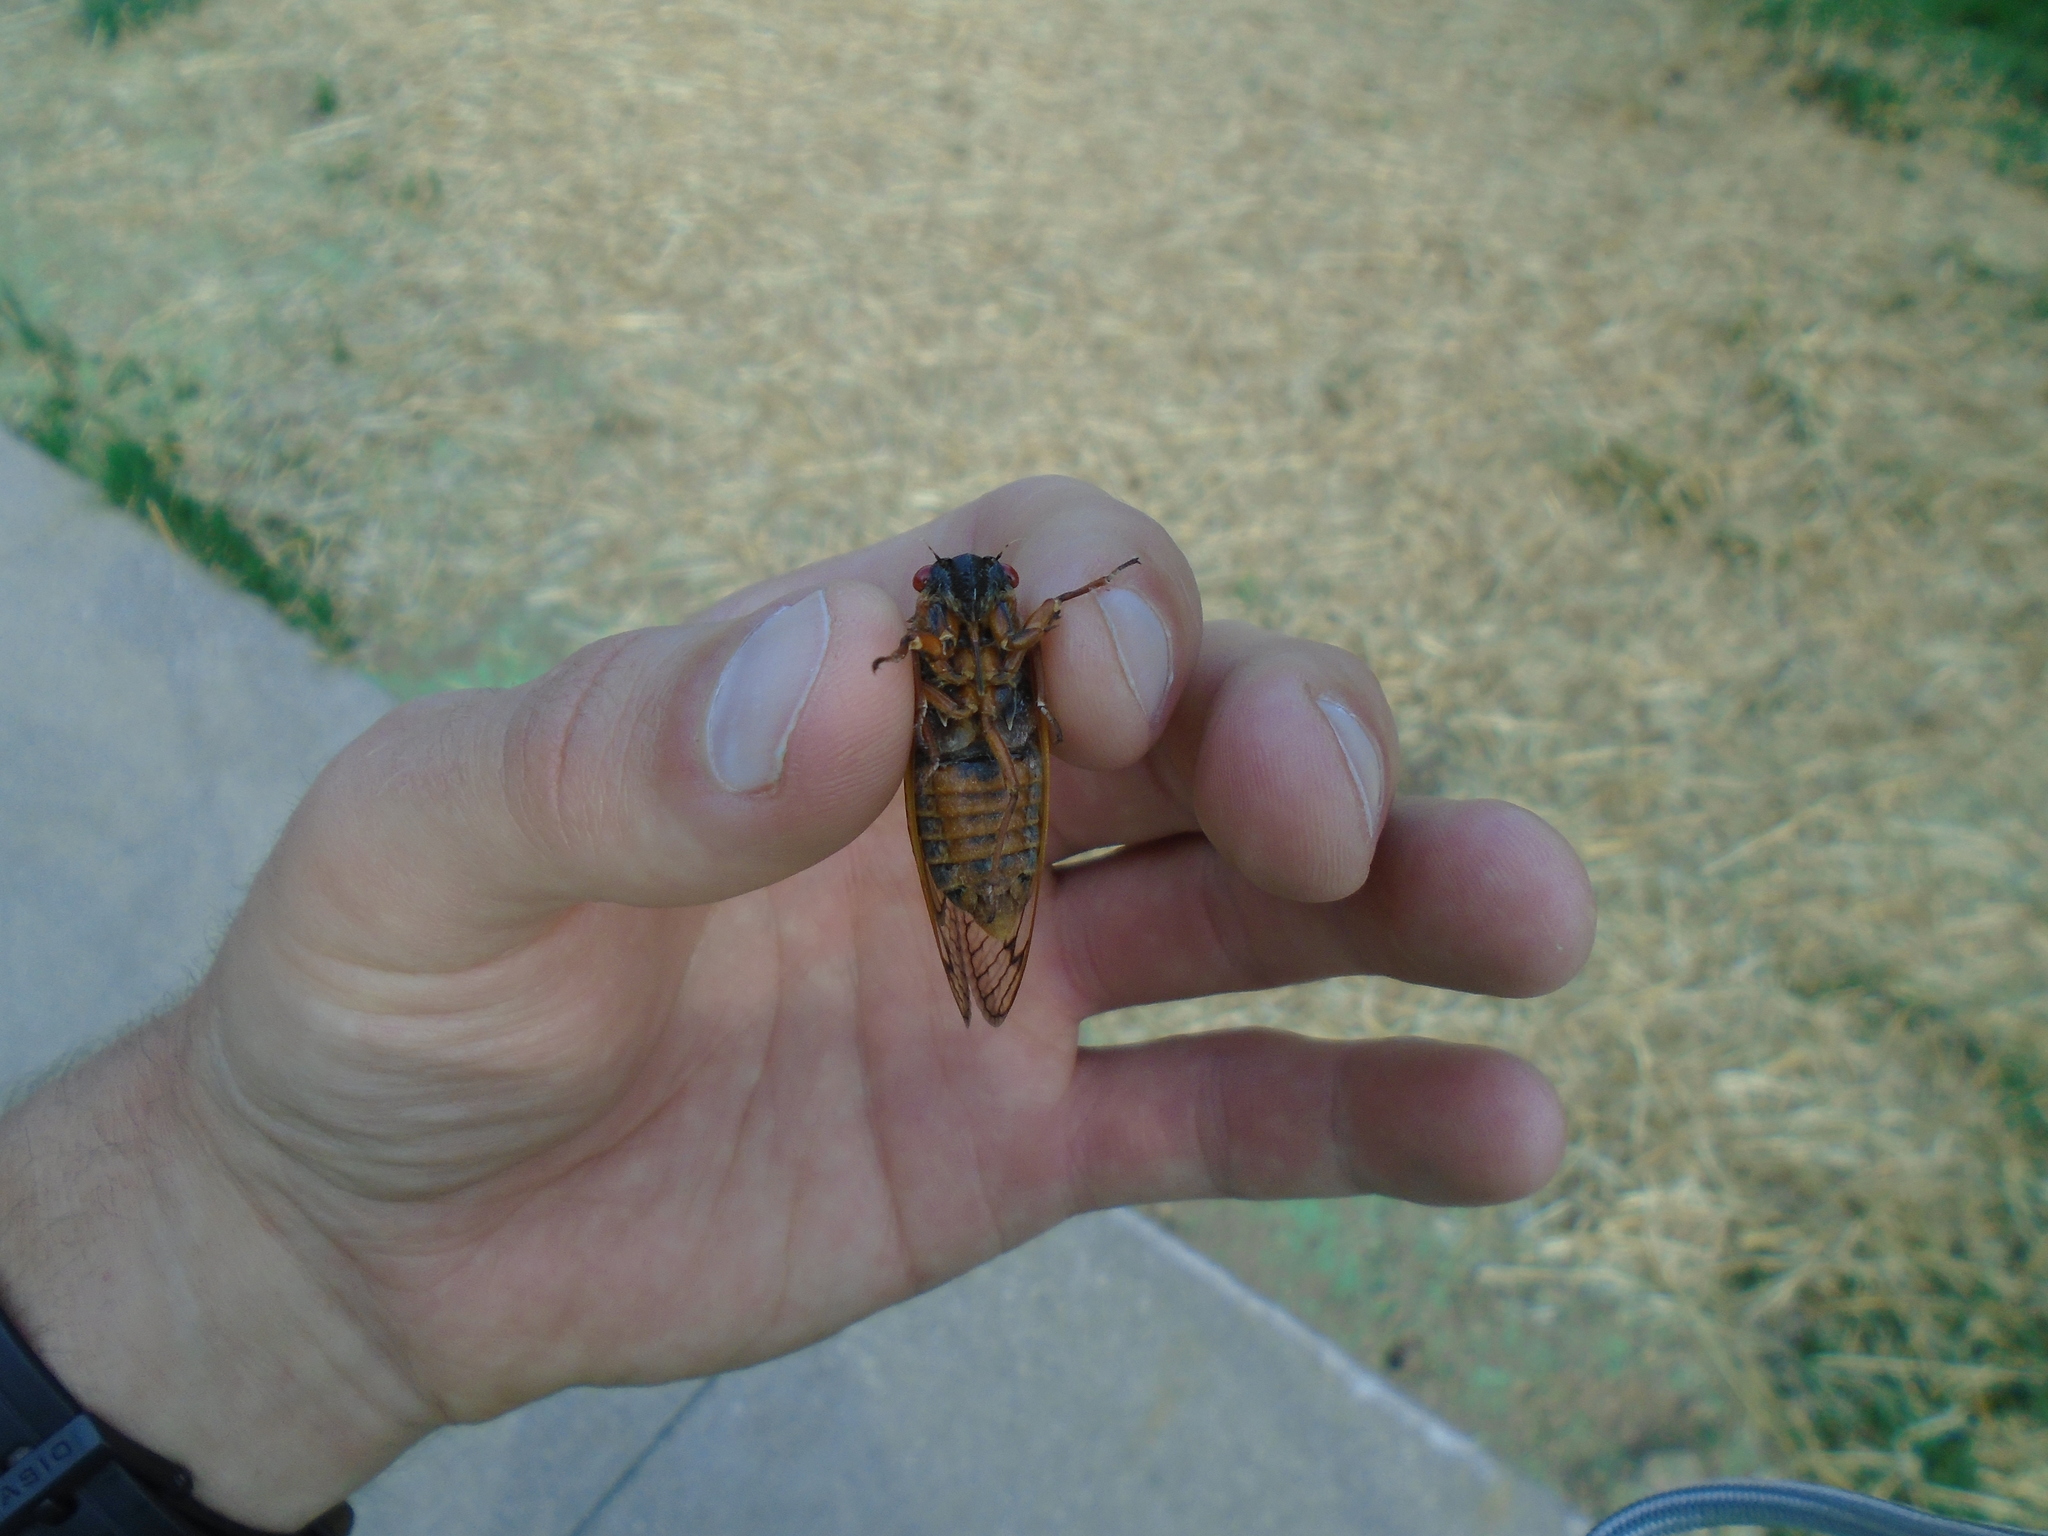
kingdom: Animalia
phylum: Arthropoda
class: Insecta
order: Hemiptera
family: Cicadidae
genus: Magicicada
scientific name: Magicicada septendecim
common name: Periodical cicada
